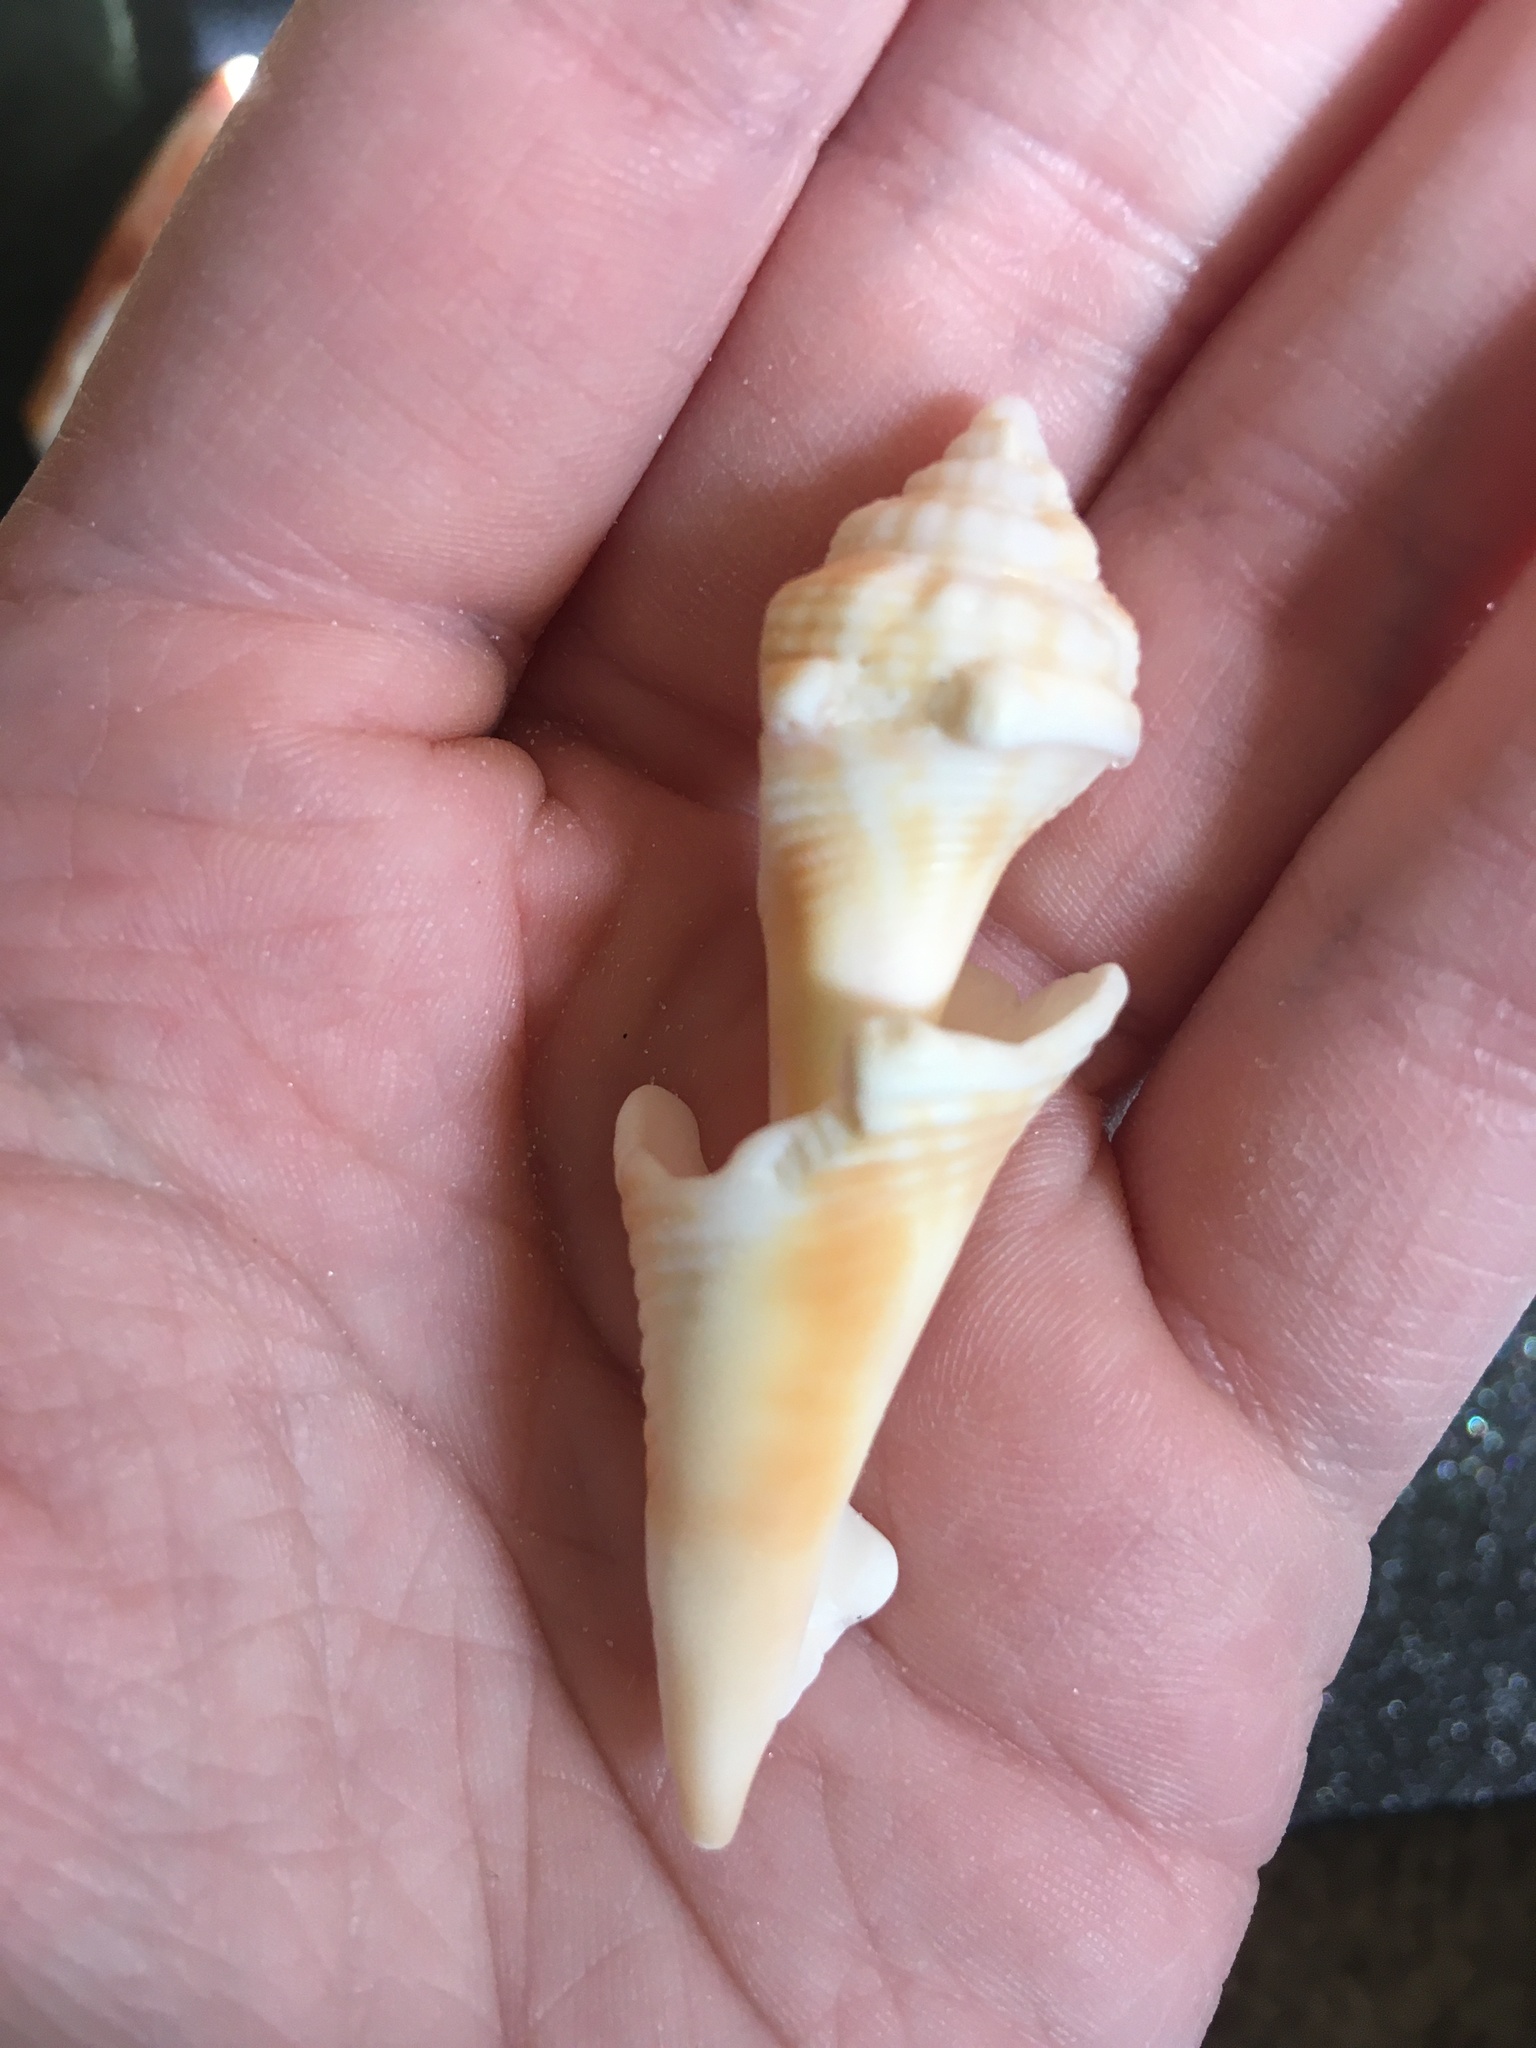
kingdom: Animalia
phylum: Mollusca
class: Gastropoda
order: Littorinimorpha
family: Strombidae
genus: Strombus
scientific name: Strombus alatus
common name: Florida fighting conch
